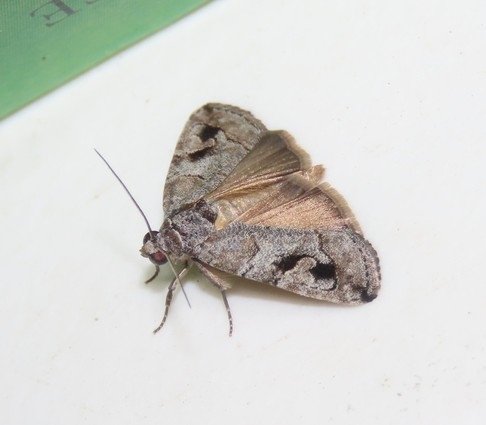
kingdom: Animalia
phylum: Arthropoda
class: Insecta
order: Lepidoptera
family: Noctuidae
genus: Metaponpneumata
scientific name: Metaponpneumata rogenhoferi
